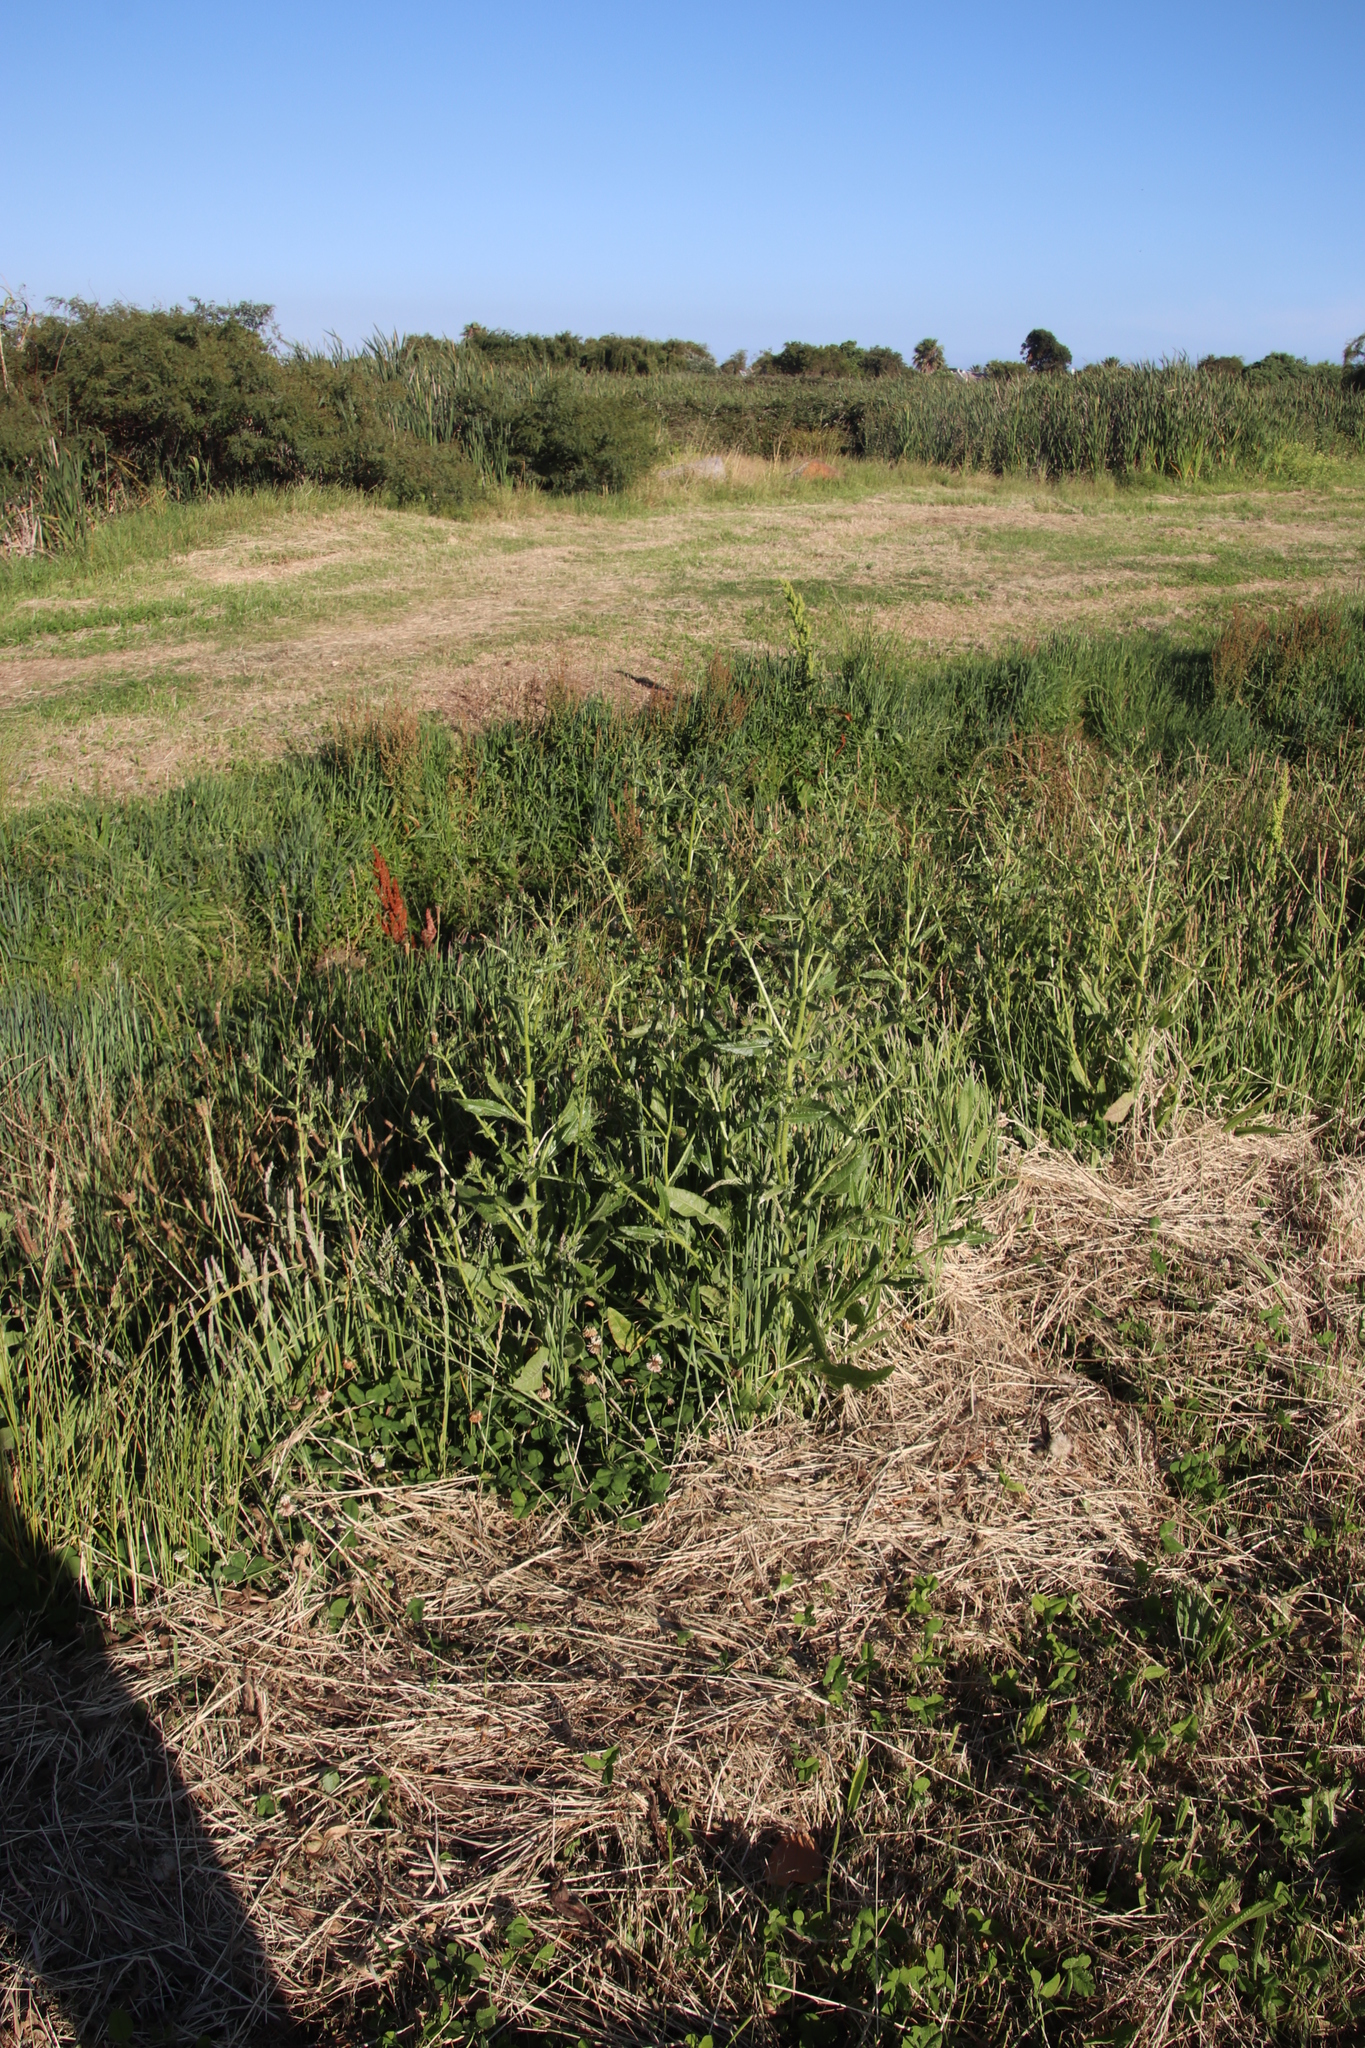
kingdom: Plantae
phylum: Tracheophyta
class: Magnoliopsida
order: Asterales
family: Asteraceae
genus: Helminthotheca
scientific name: Helminthotheca echioides
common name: Ox-tongue
